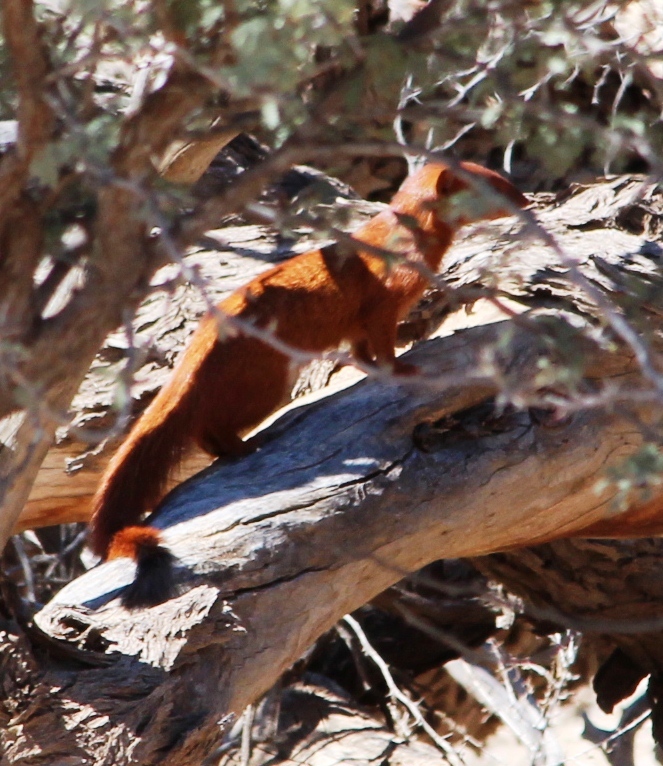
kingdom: Animalia
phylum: Chordata
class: Mammalia
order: Carnivora
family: Herpestidae
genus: Galerella
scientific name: Galerella sanguinea
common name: Slender mongoose
